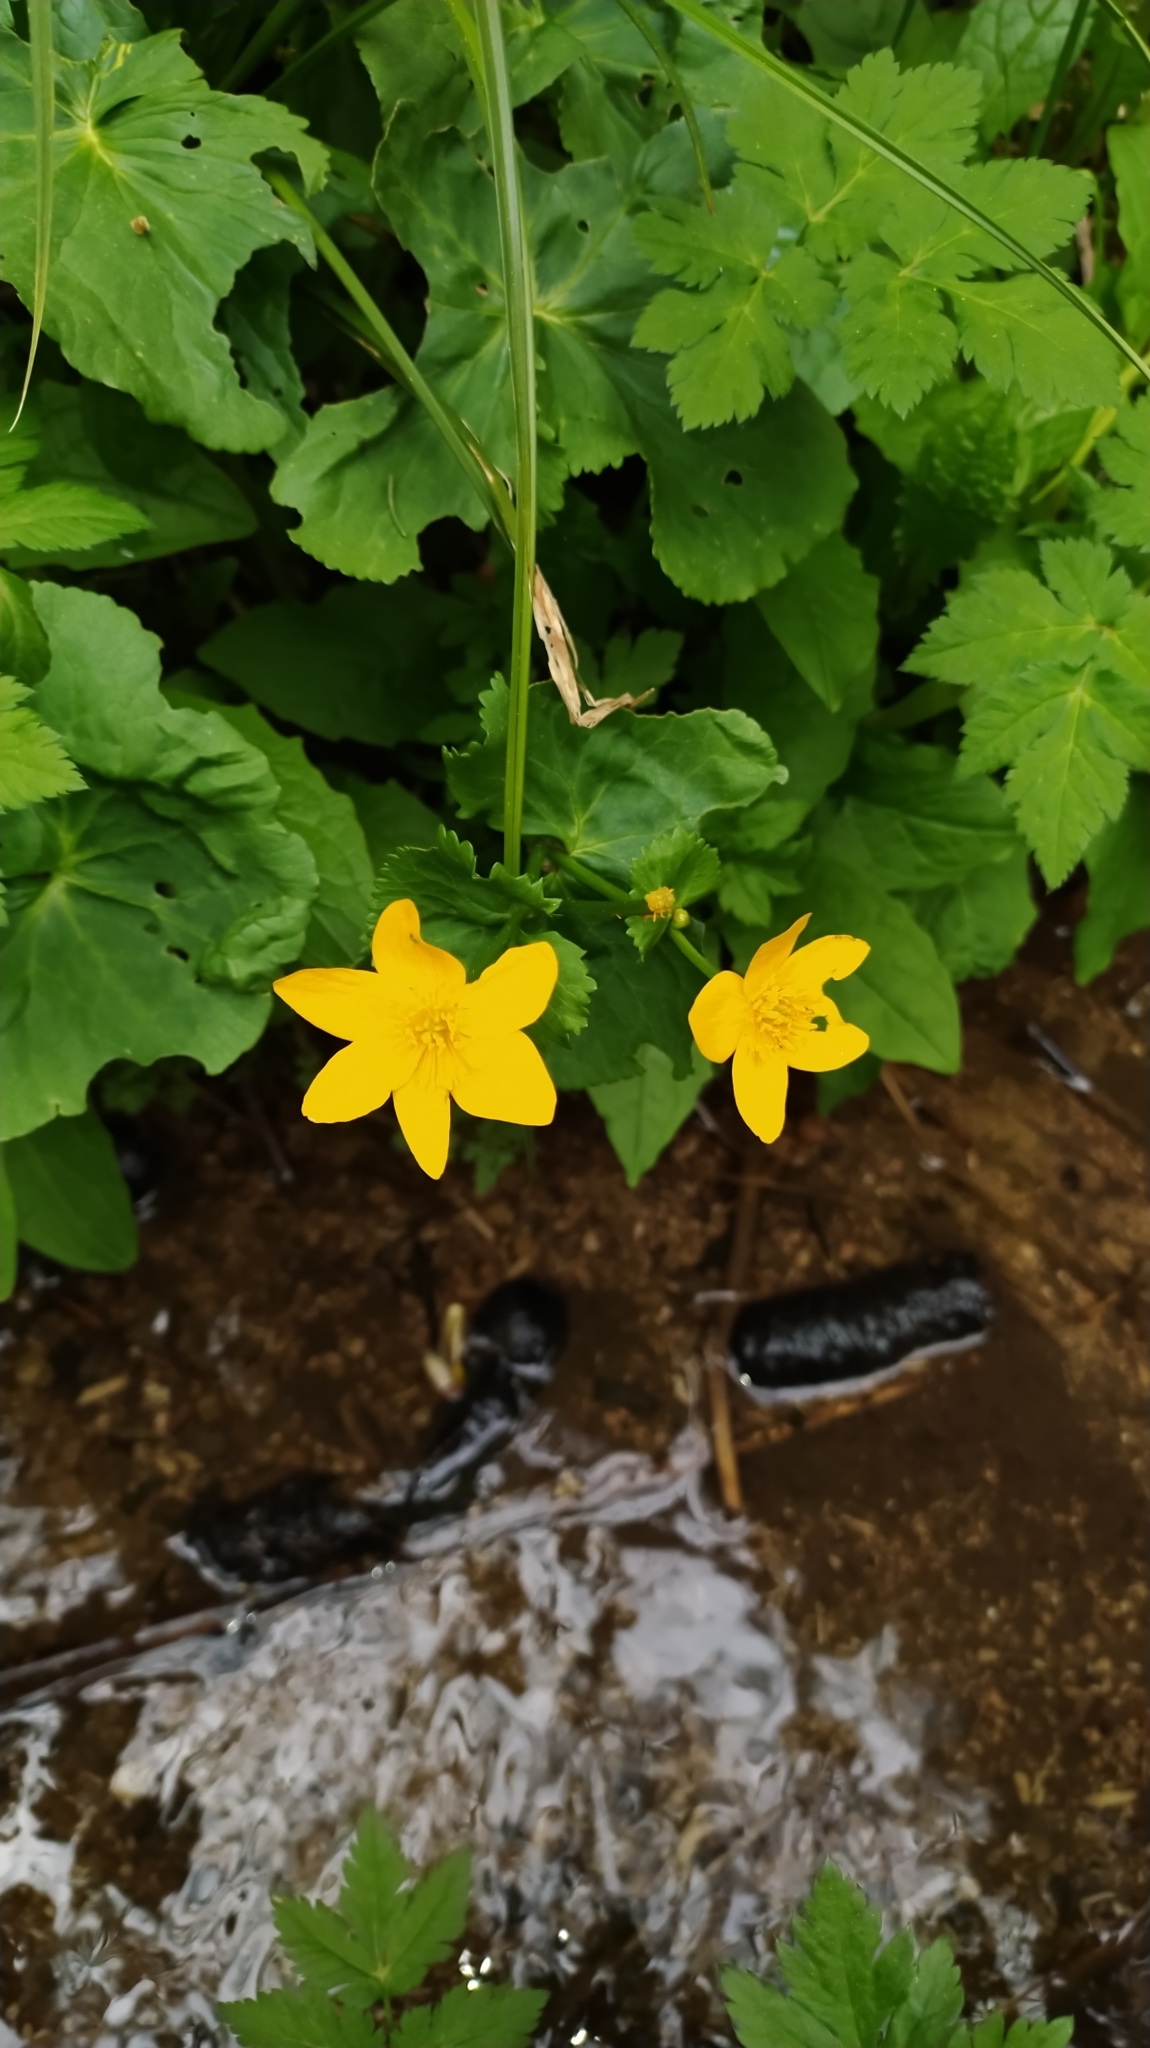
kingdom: Plantae
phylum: Tracheophyta
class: Magnoliopsida
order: Ranunculales
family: Ranunculaceae
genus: Caltha
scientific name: Caltha palustris
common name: Marsh marigold
